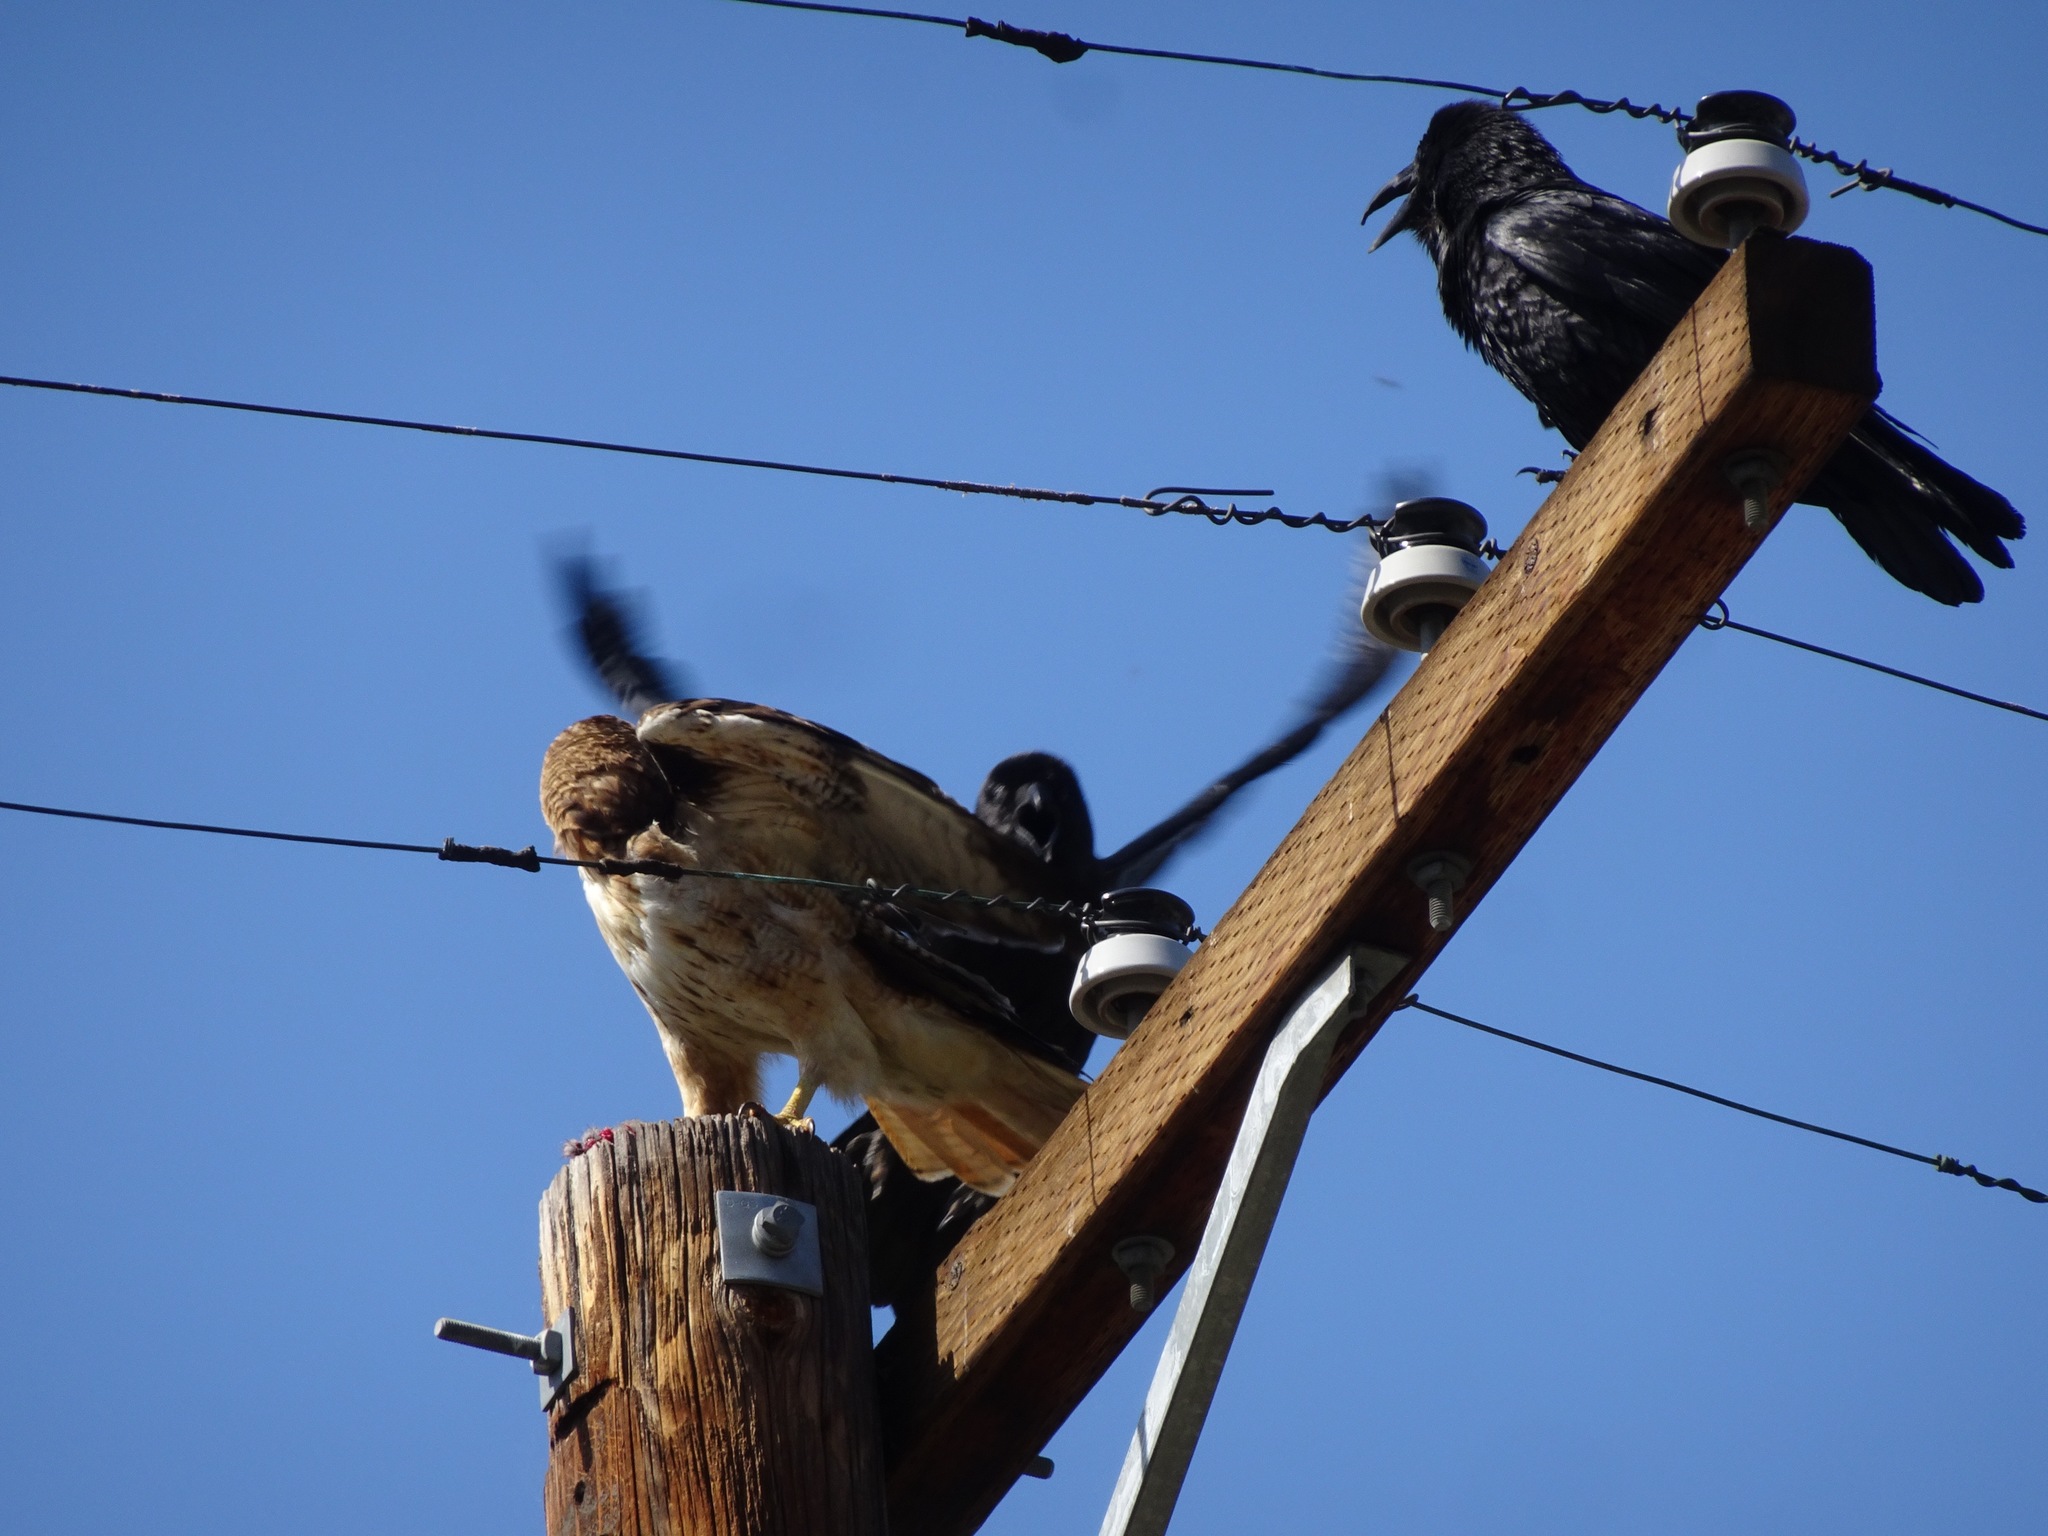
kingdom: Animalia
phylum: Chordata
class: Aves
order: Accipitriformes
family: Accipitridae
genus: Buteo
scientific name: Buteo jamaicensis
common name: Red-tailed hawk
